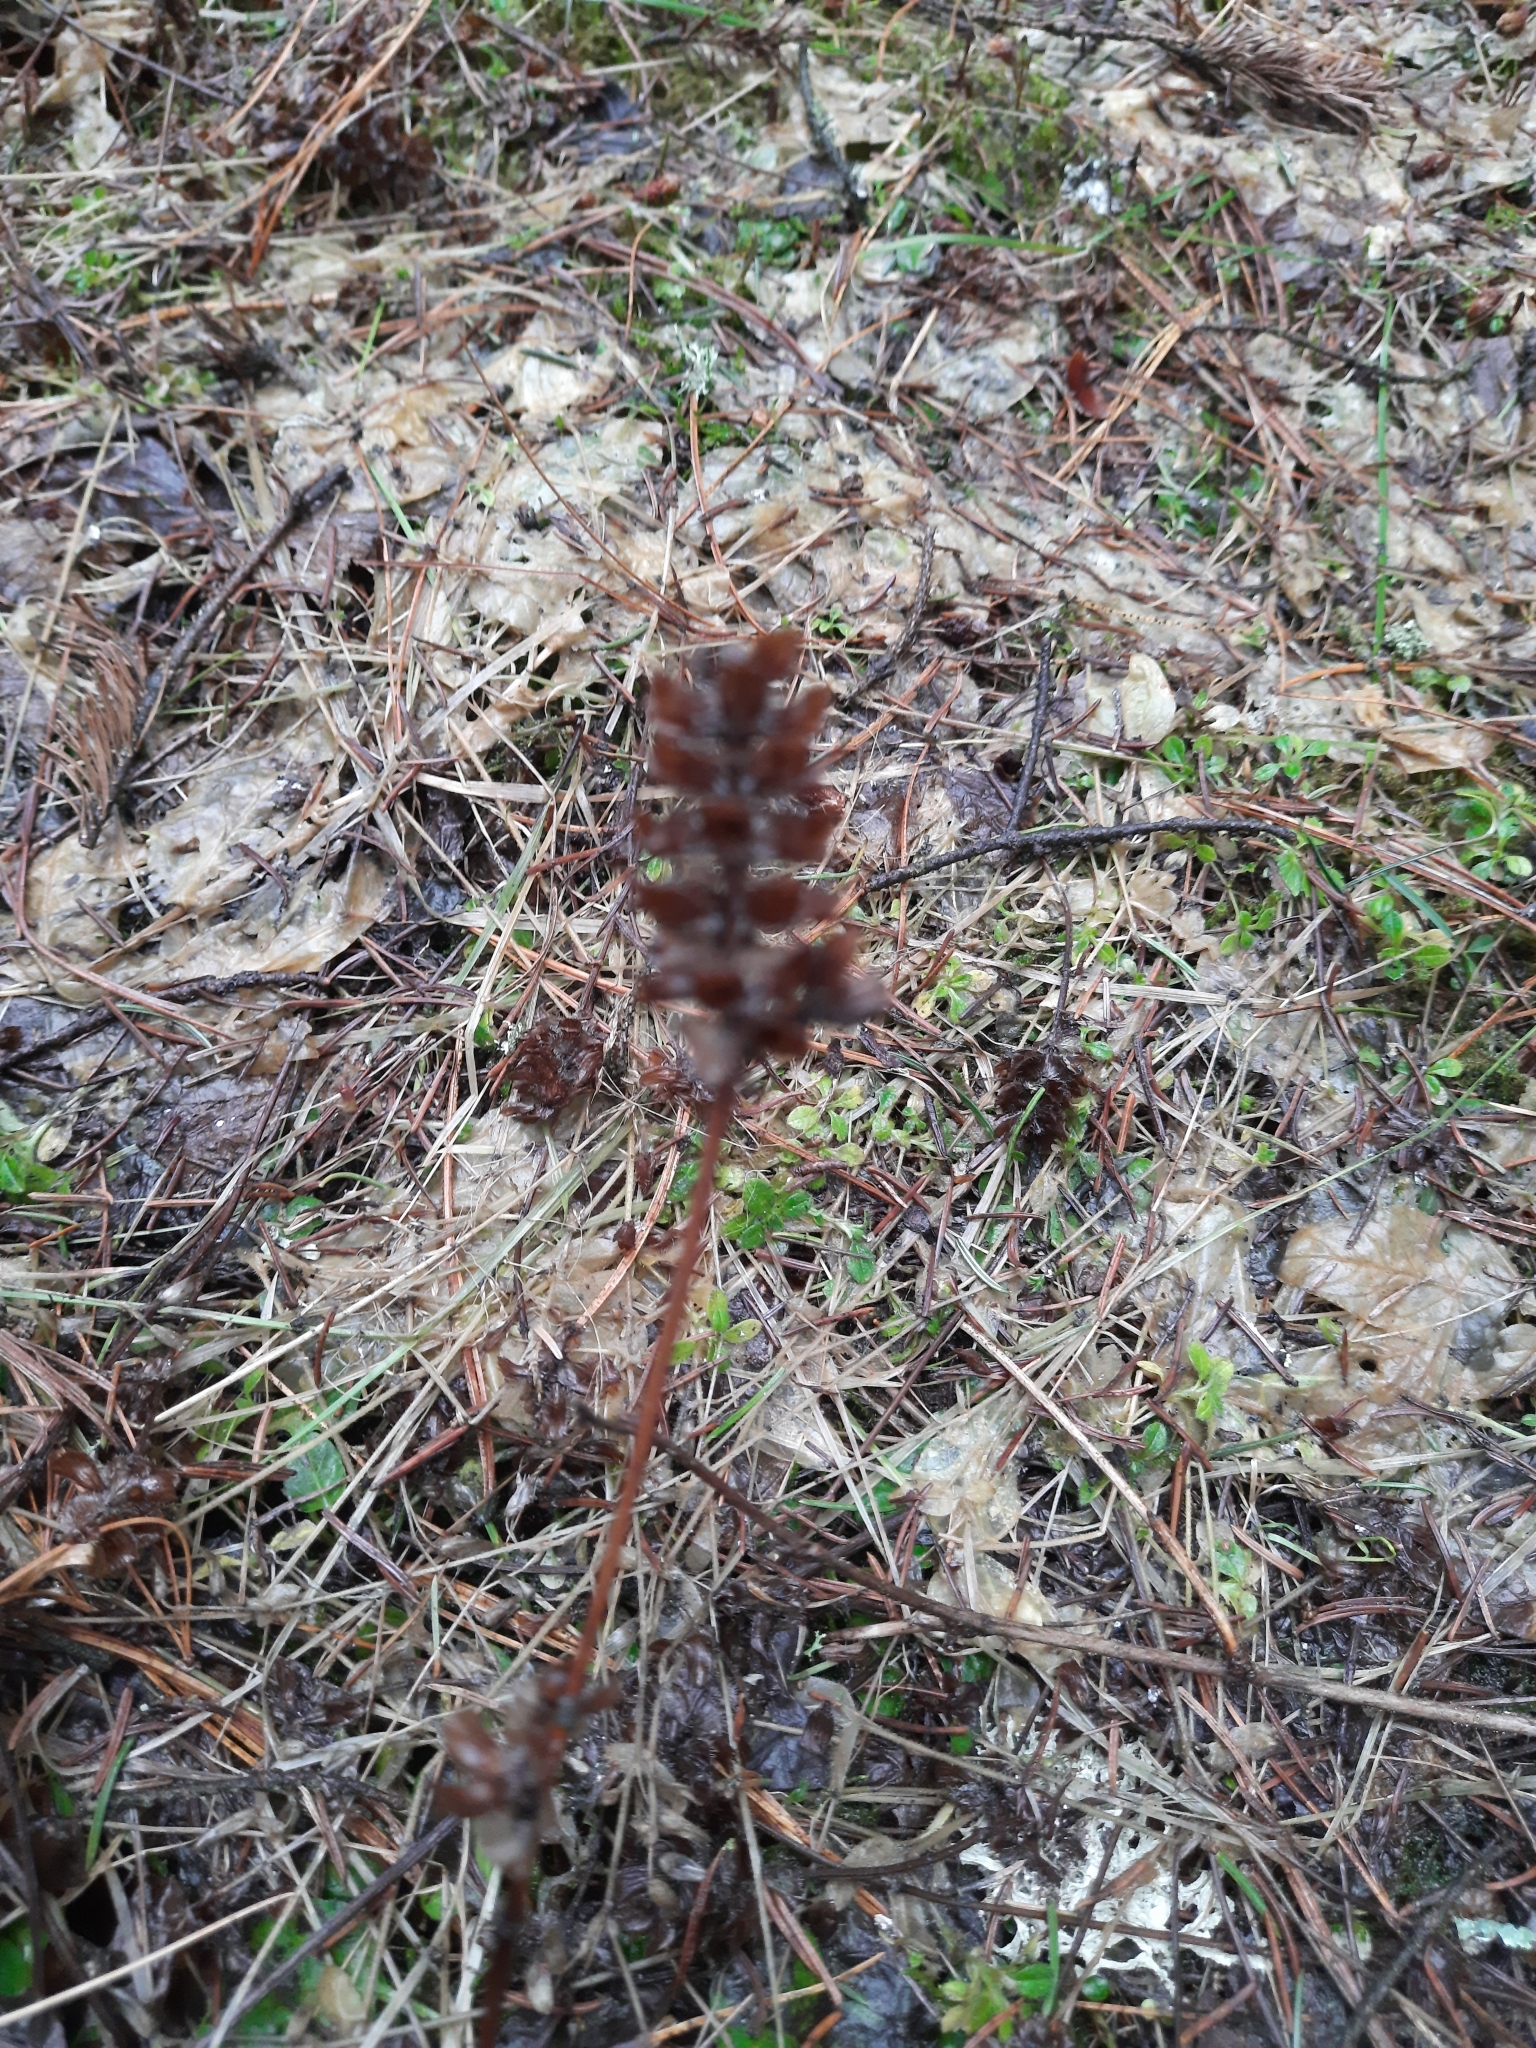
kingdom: Plantae
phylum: Tracheophyta
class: Magnoliopsida
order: Lamiales
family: Lamiaceae
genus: Prunella
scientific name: Prunella vulgaris
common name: Heal-all
